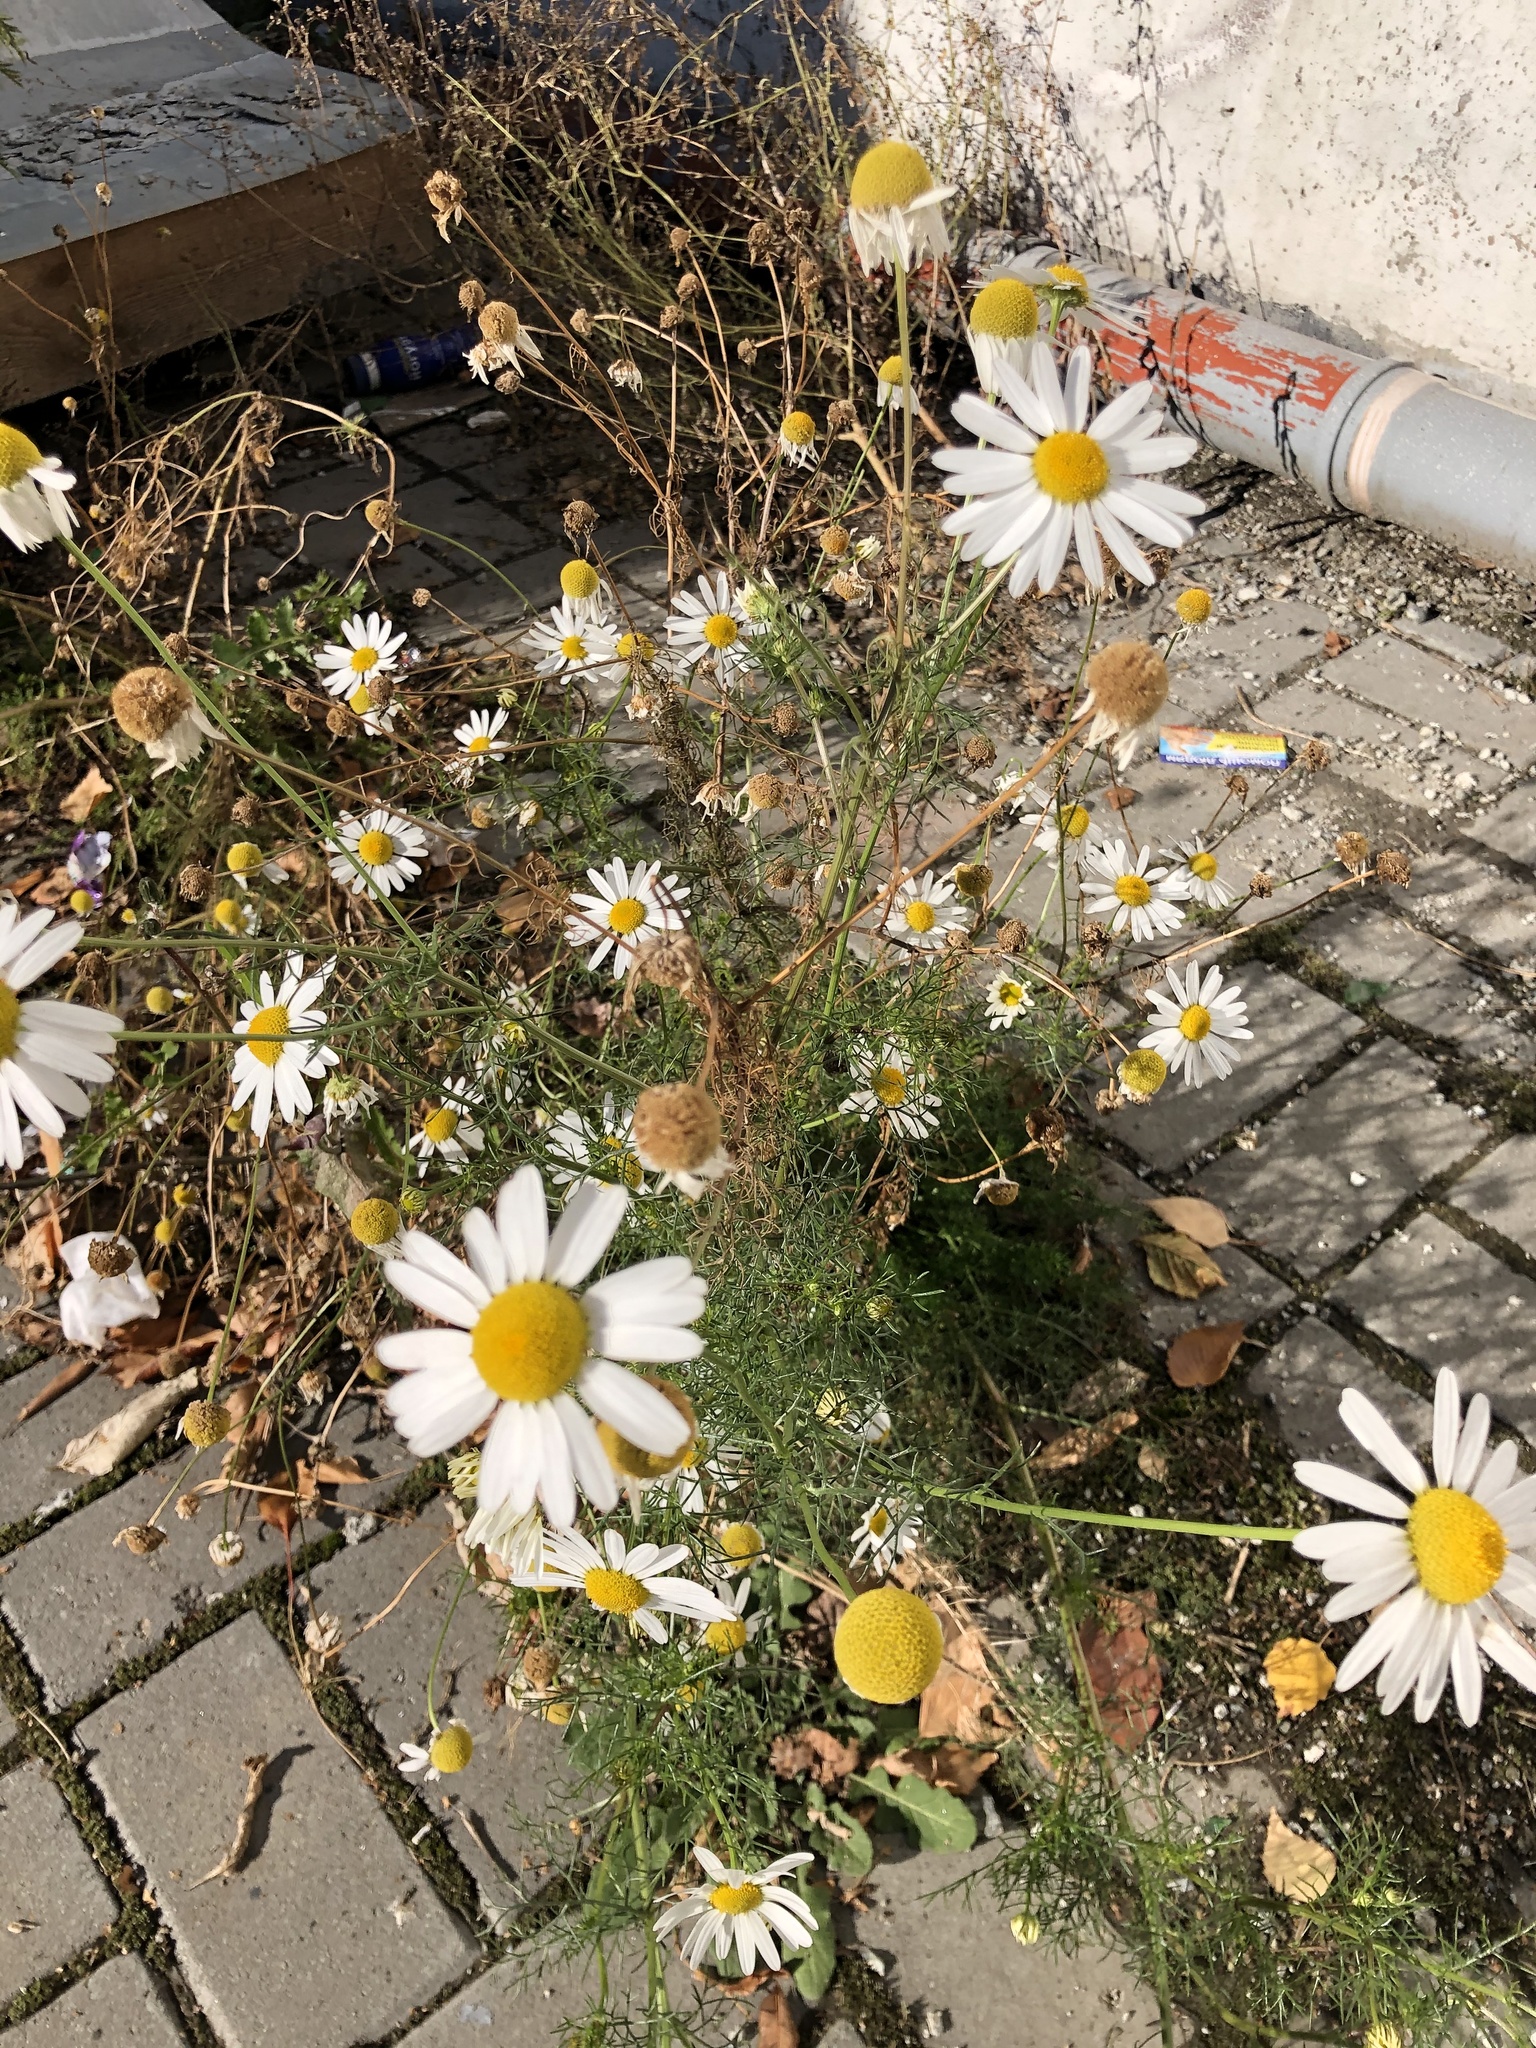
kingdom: Plantae
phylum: Tracheophyta
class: Magnoliopsida
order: Asterales
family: Asteraceae
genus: Tripleurospermum
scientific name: Tripleurospermum inodorum
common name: Scentless mayweed
